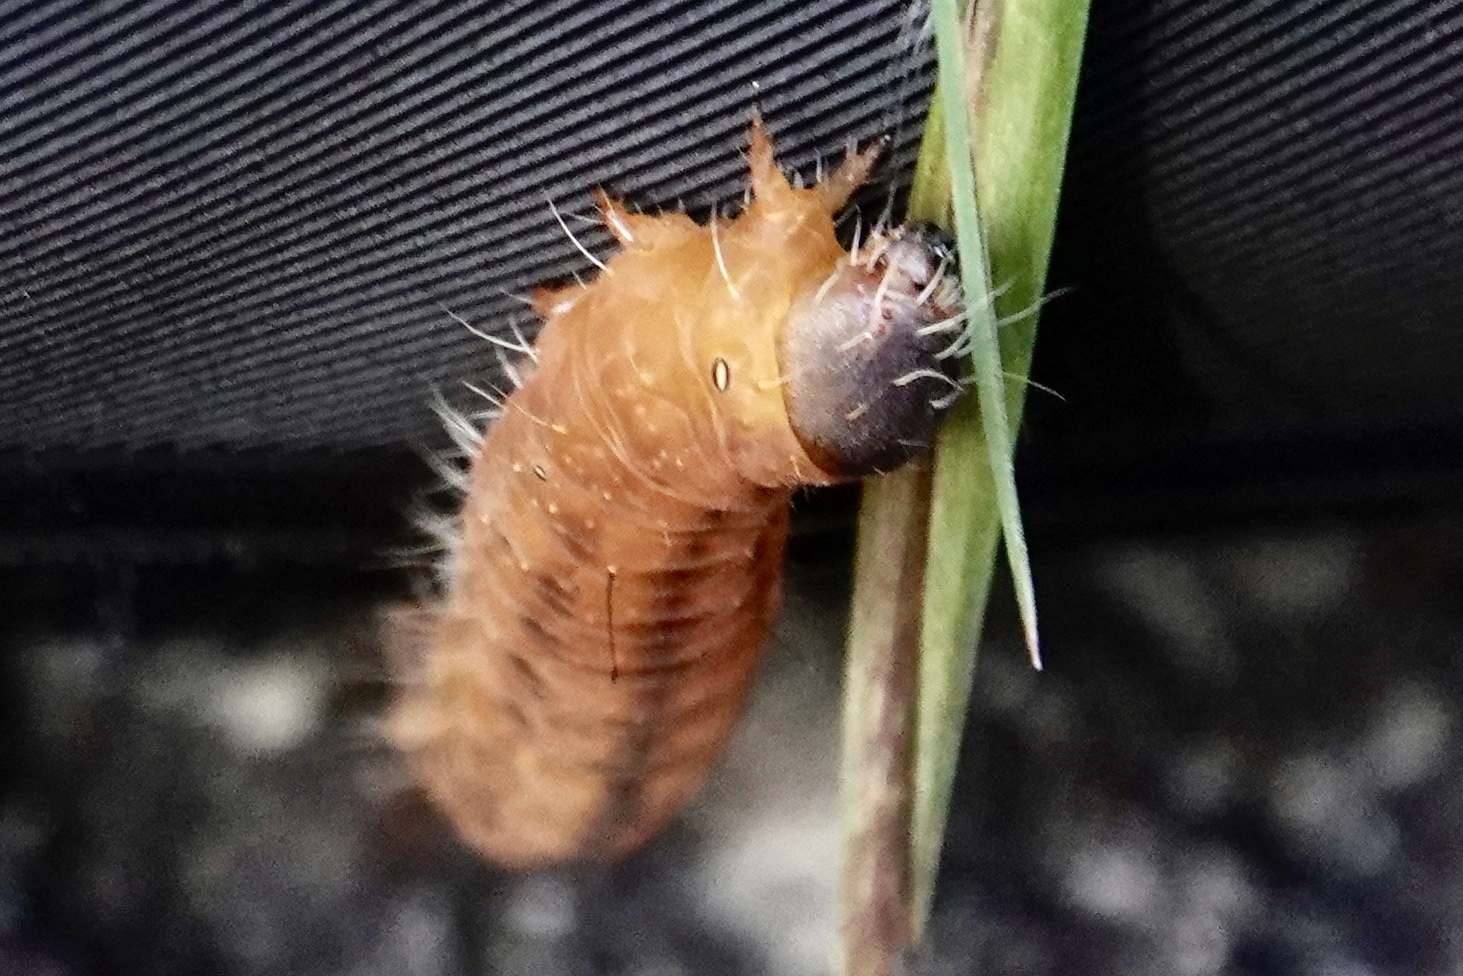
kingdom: Animalia
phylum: Arthropoda
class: Insecta
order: Lepidoptera
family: Noctuidae
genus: Acronicta
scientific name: Acronicta afflicta
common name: Afflicted dagger moth
